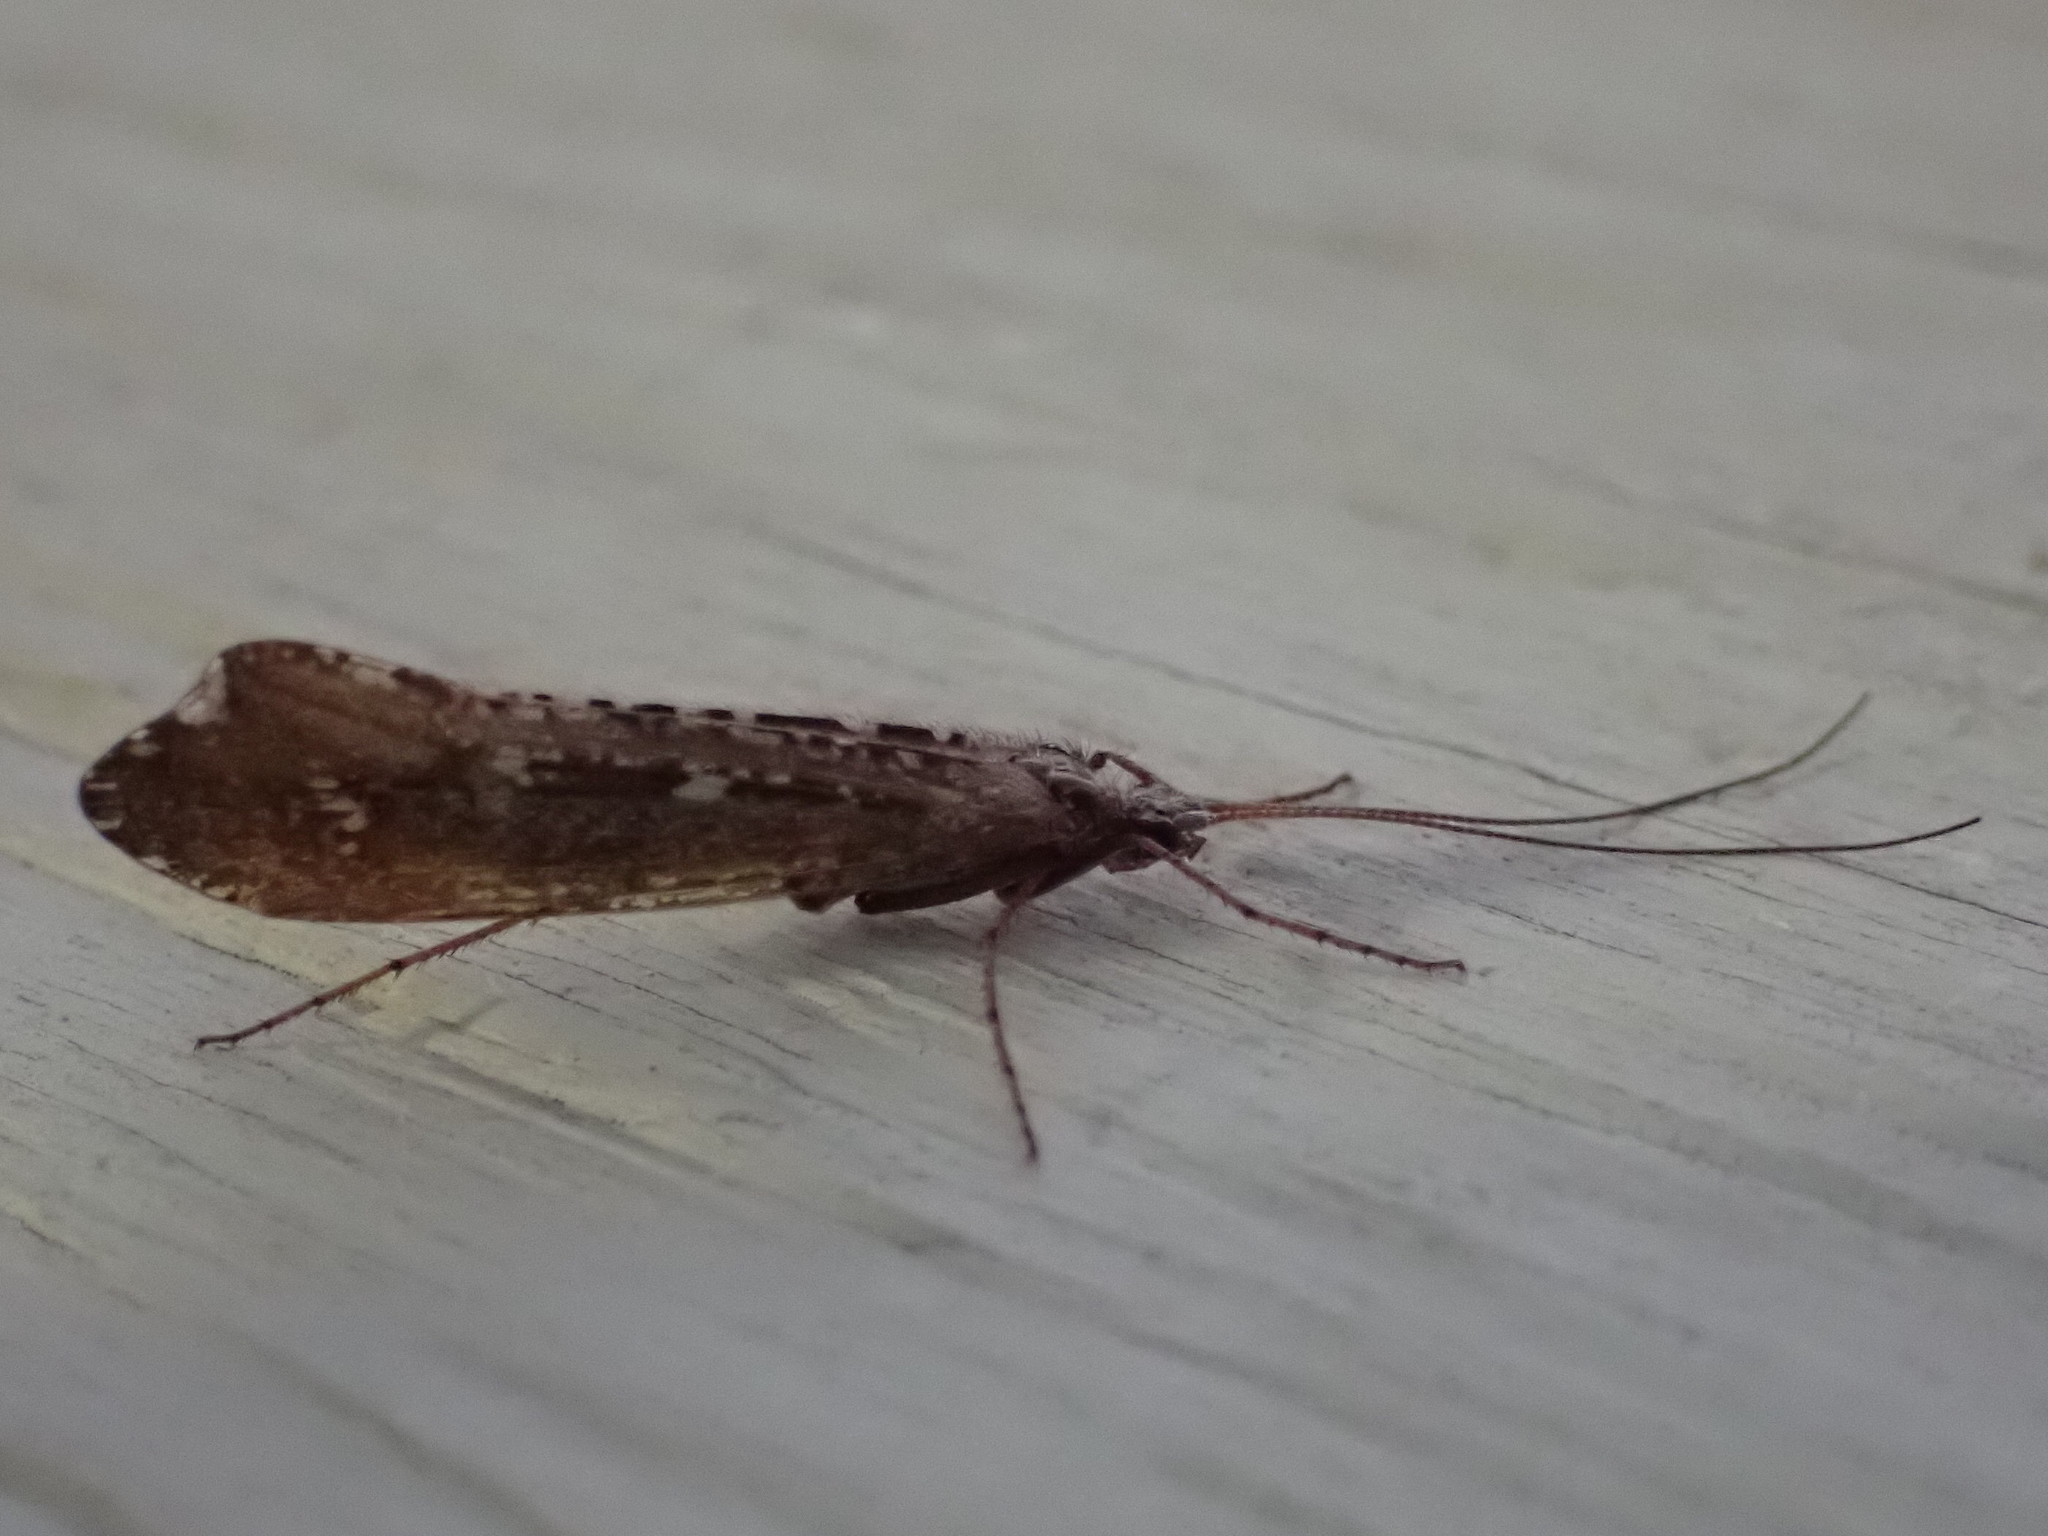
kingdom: Animalia
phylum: Arthropoda
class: Insecta
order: Trichoptera
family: Limnephilidae
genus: Glyphopsyche
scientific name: Glyphopsyche irrorata
